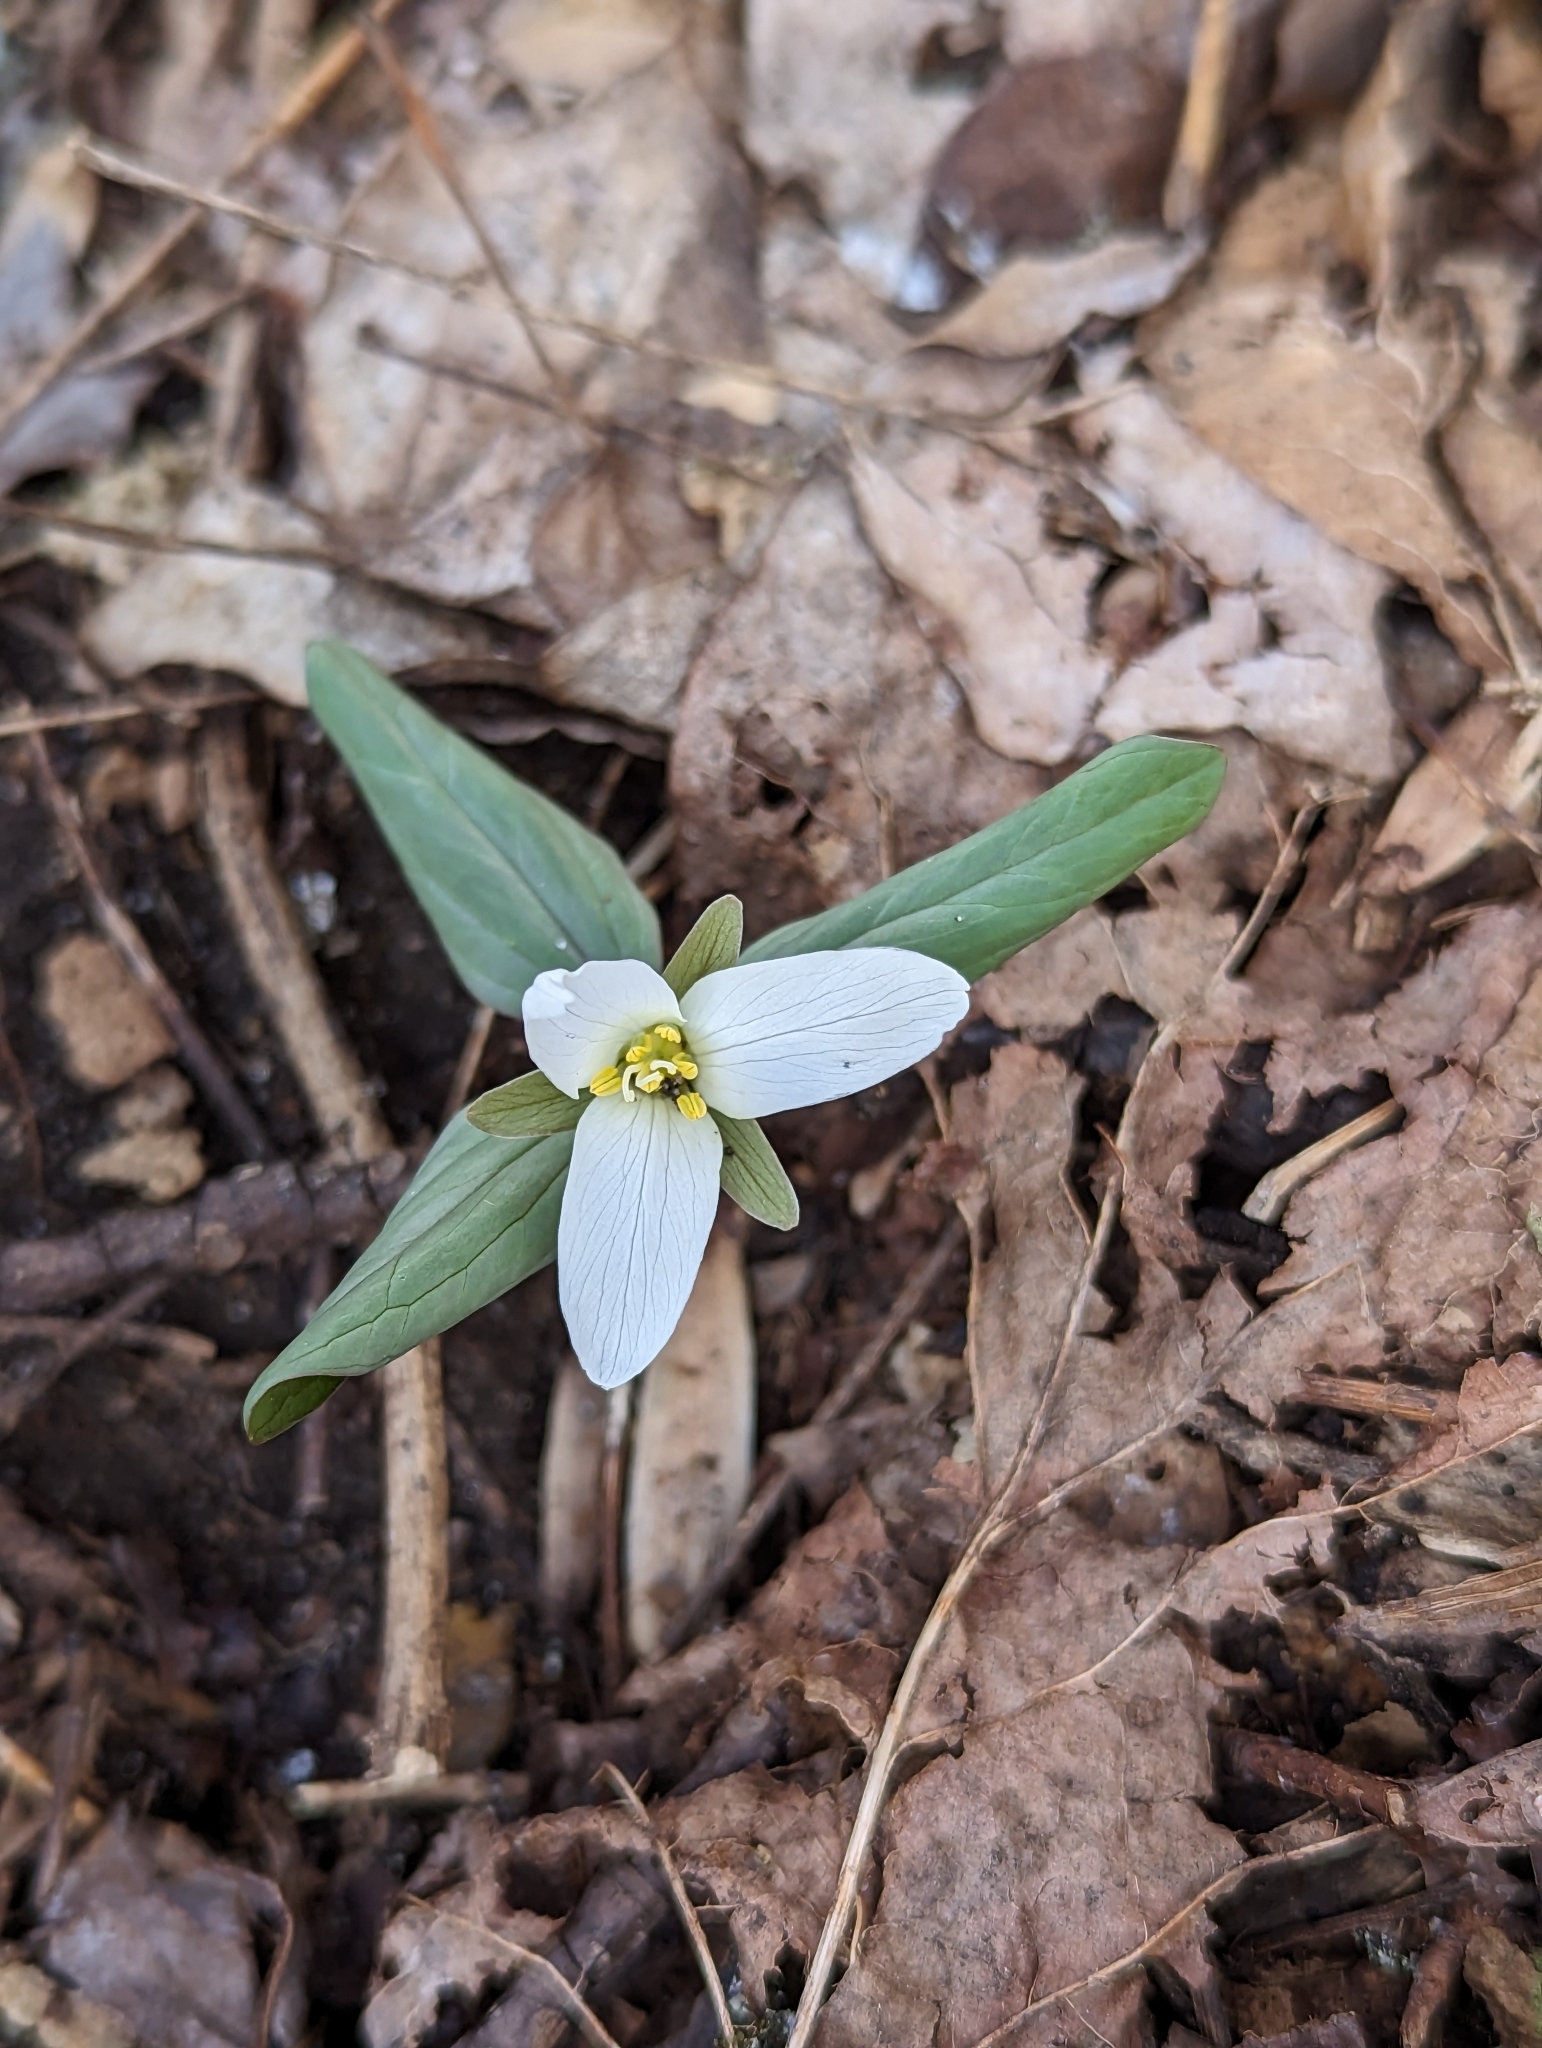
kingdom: Plantae
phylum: Tracheophyta
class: Liliopsida
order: Liliales
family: Melanthiaceae
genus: Trillium
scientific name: Trillium nivale
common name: Dwarf white trillium
